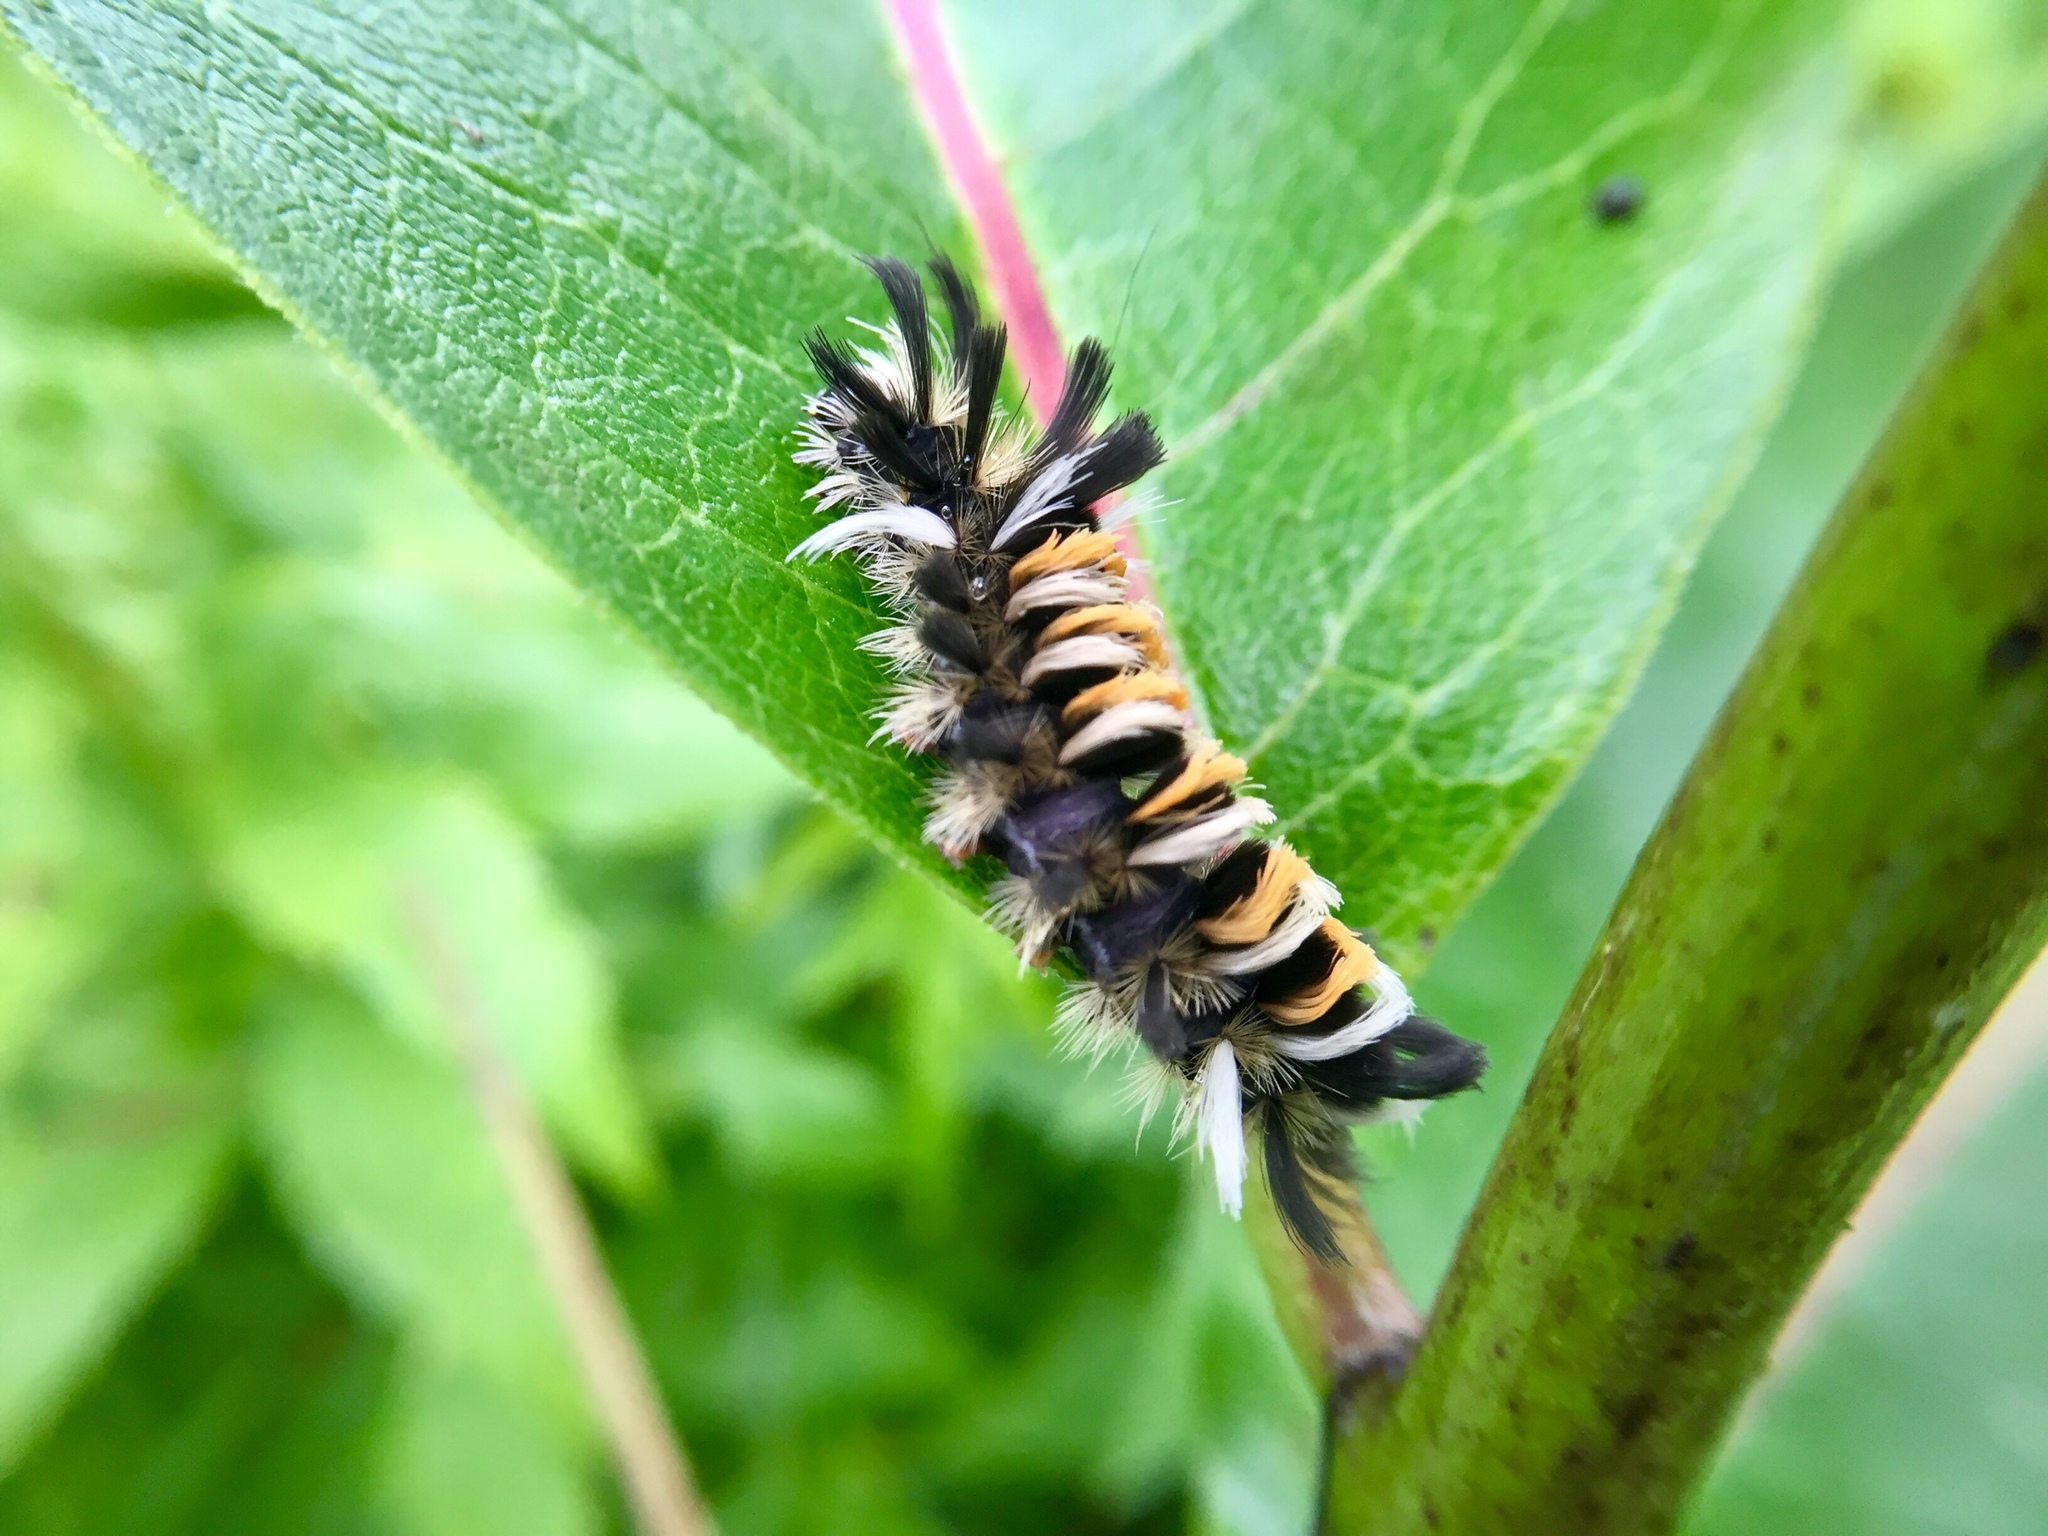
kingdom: Animalia
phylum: Arthropoda
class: Insecta
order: Lepidoptera
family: Erebidae
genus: Euchaetes
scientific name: Euchaetes egle
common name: Milkweed tussock moth
